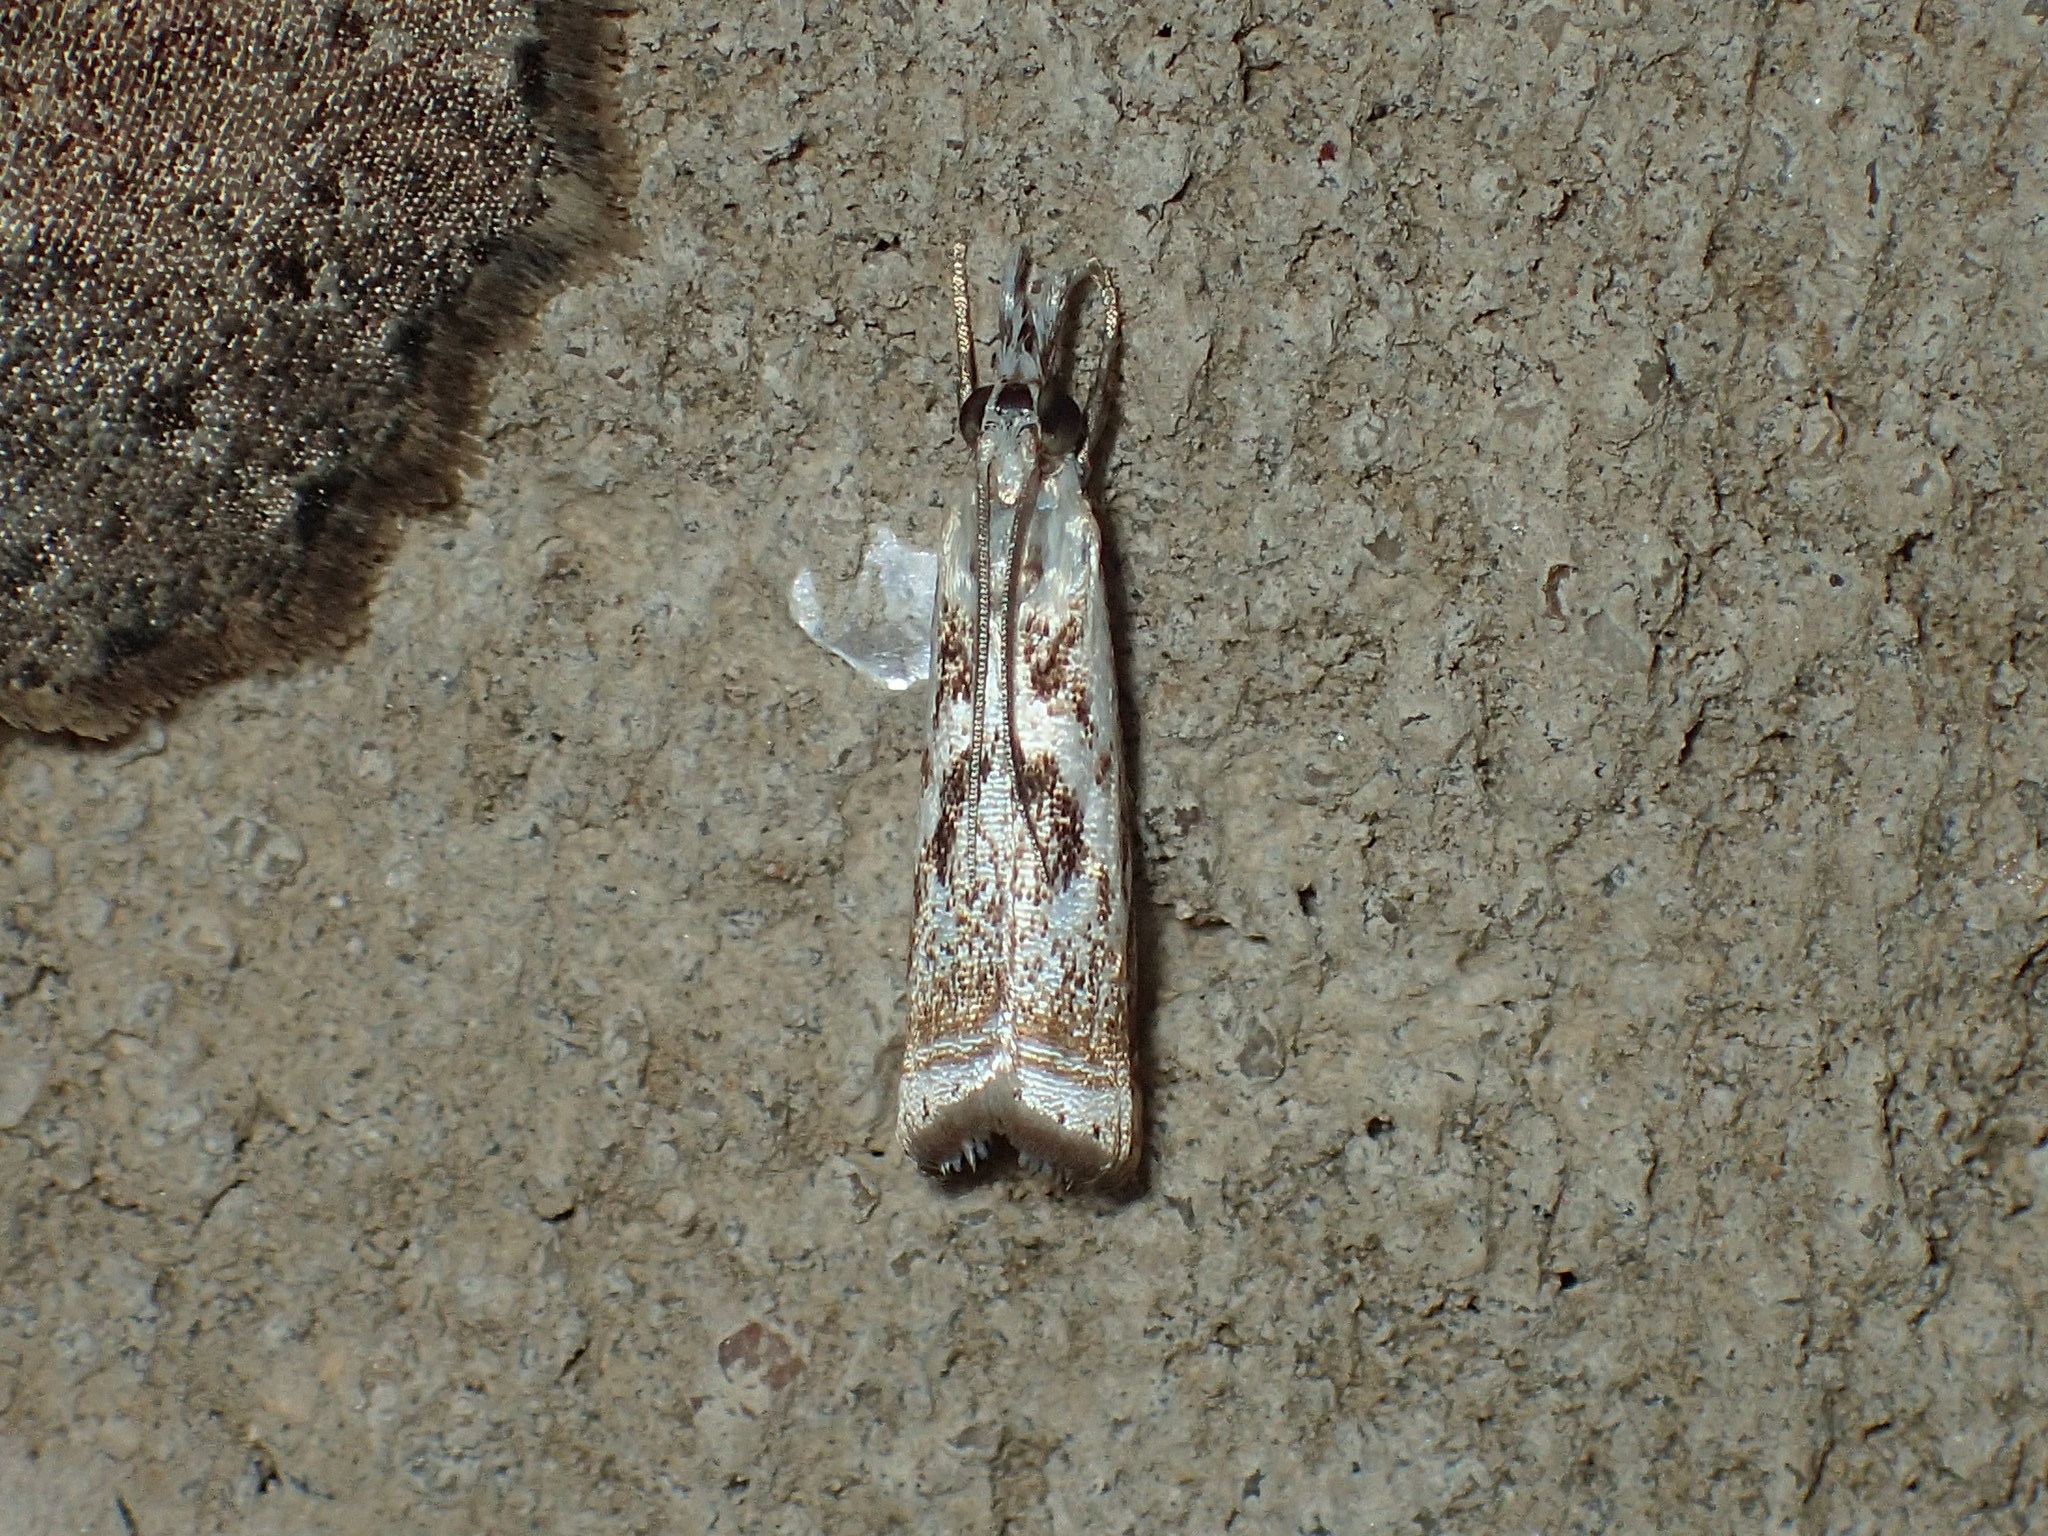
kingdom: Animalia
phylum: Arthropoda
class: Insecta
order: Lepidoptera
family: Crambidae
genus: Microcrambus
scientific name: Microcrambus elegans
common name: Elegant grass-veneer
